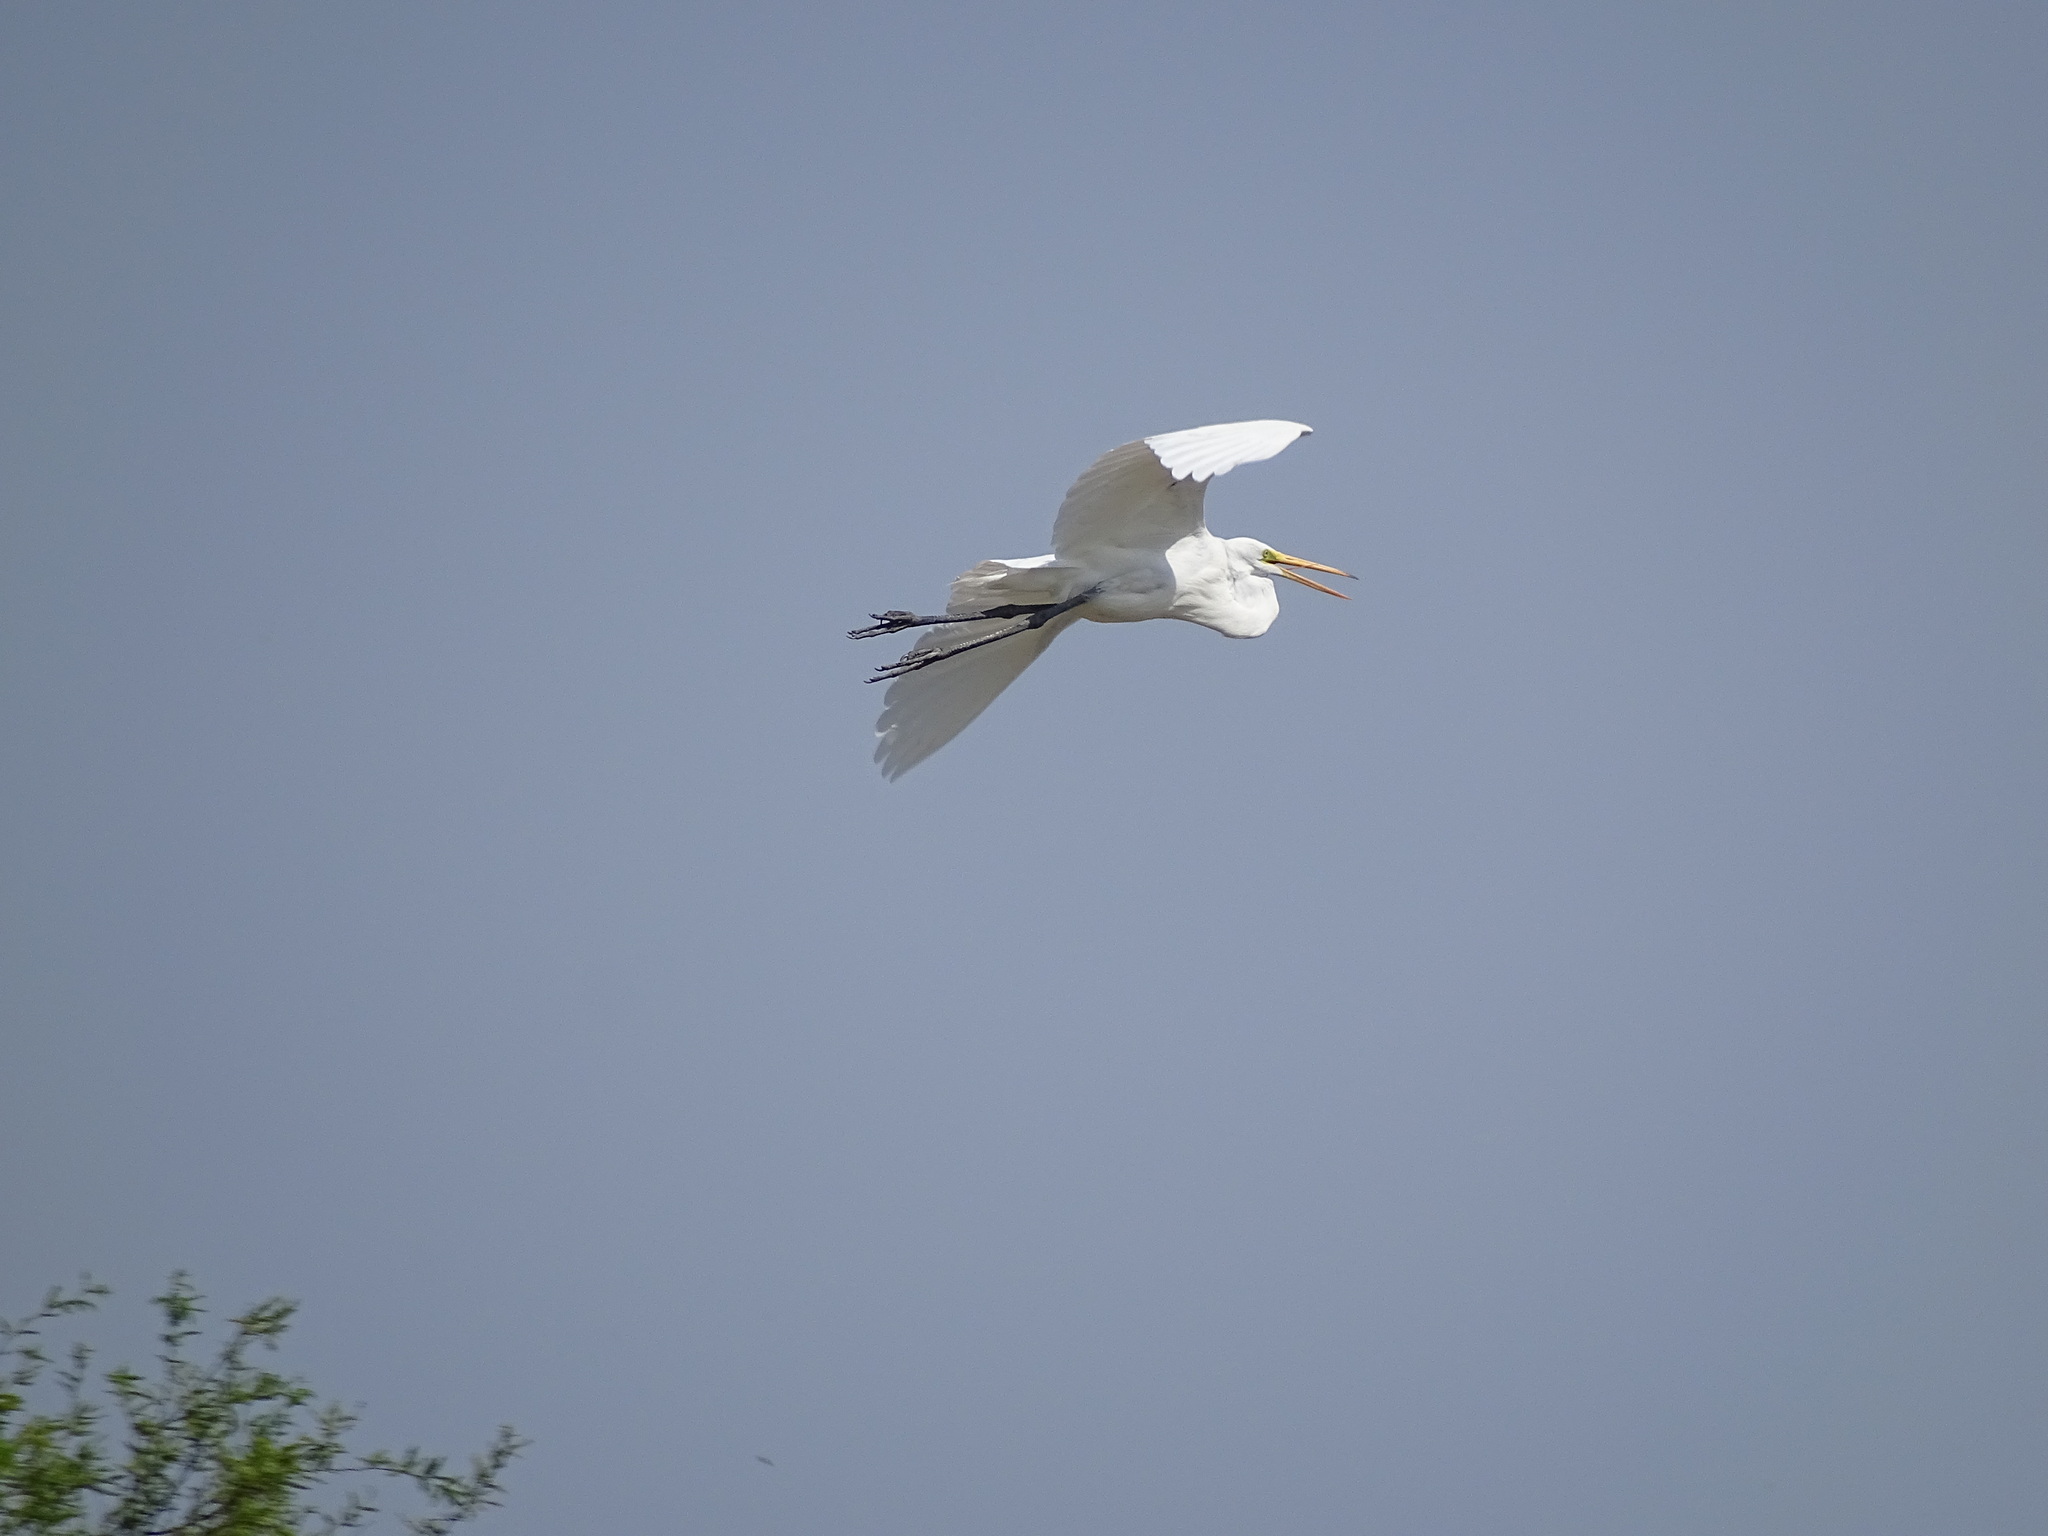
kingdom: Animalia
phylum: Chordata
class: Aves
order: Pelecaniformes
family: Ardeidae
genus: Ardea
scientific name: Ardea alba
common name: Great egret
